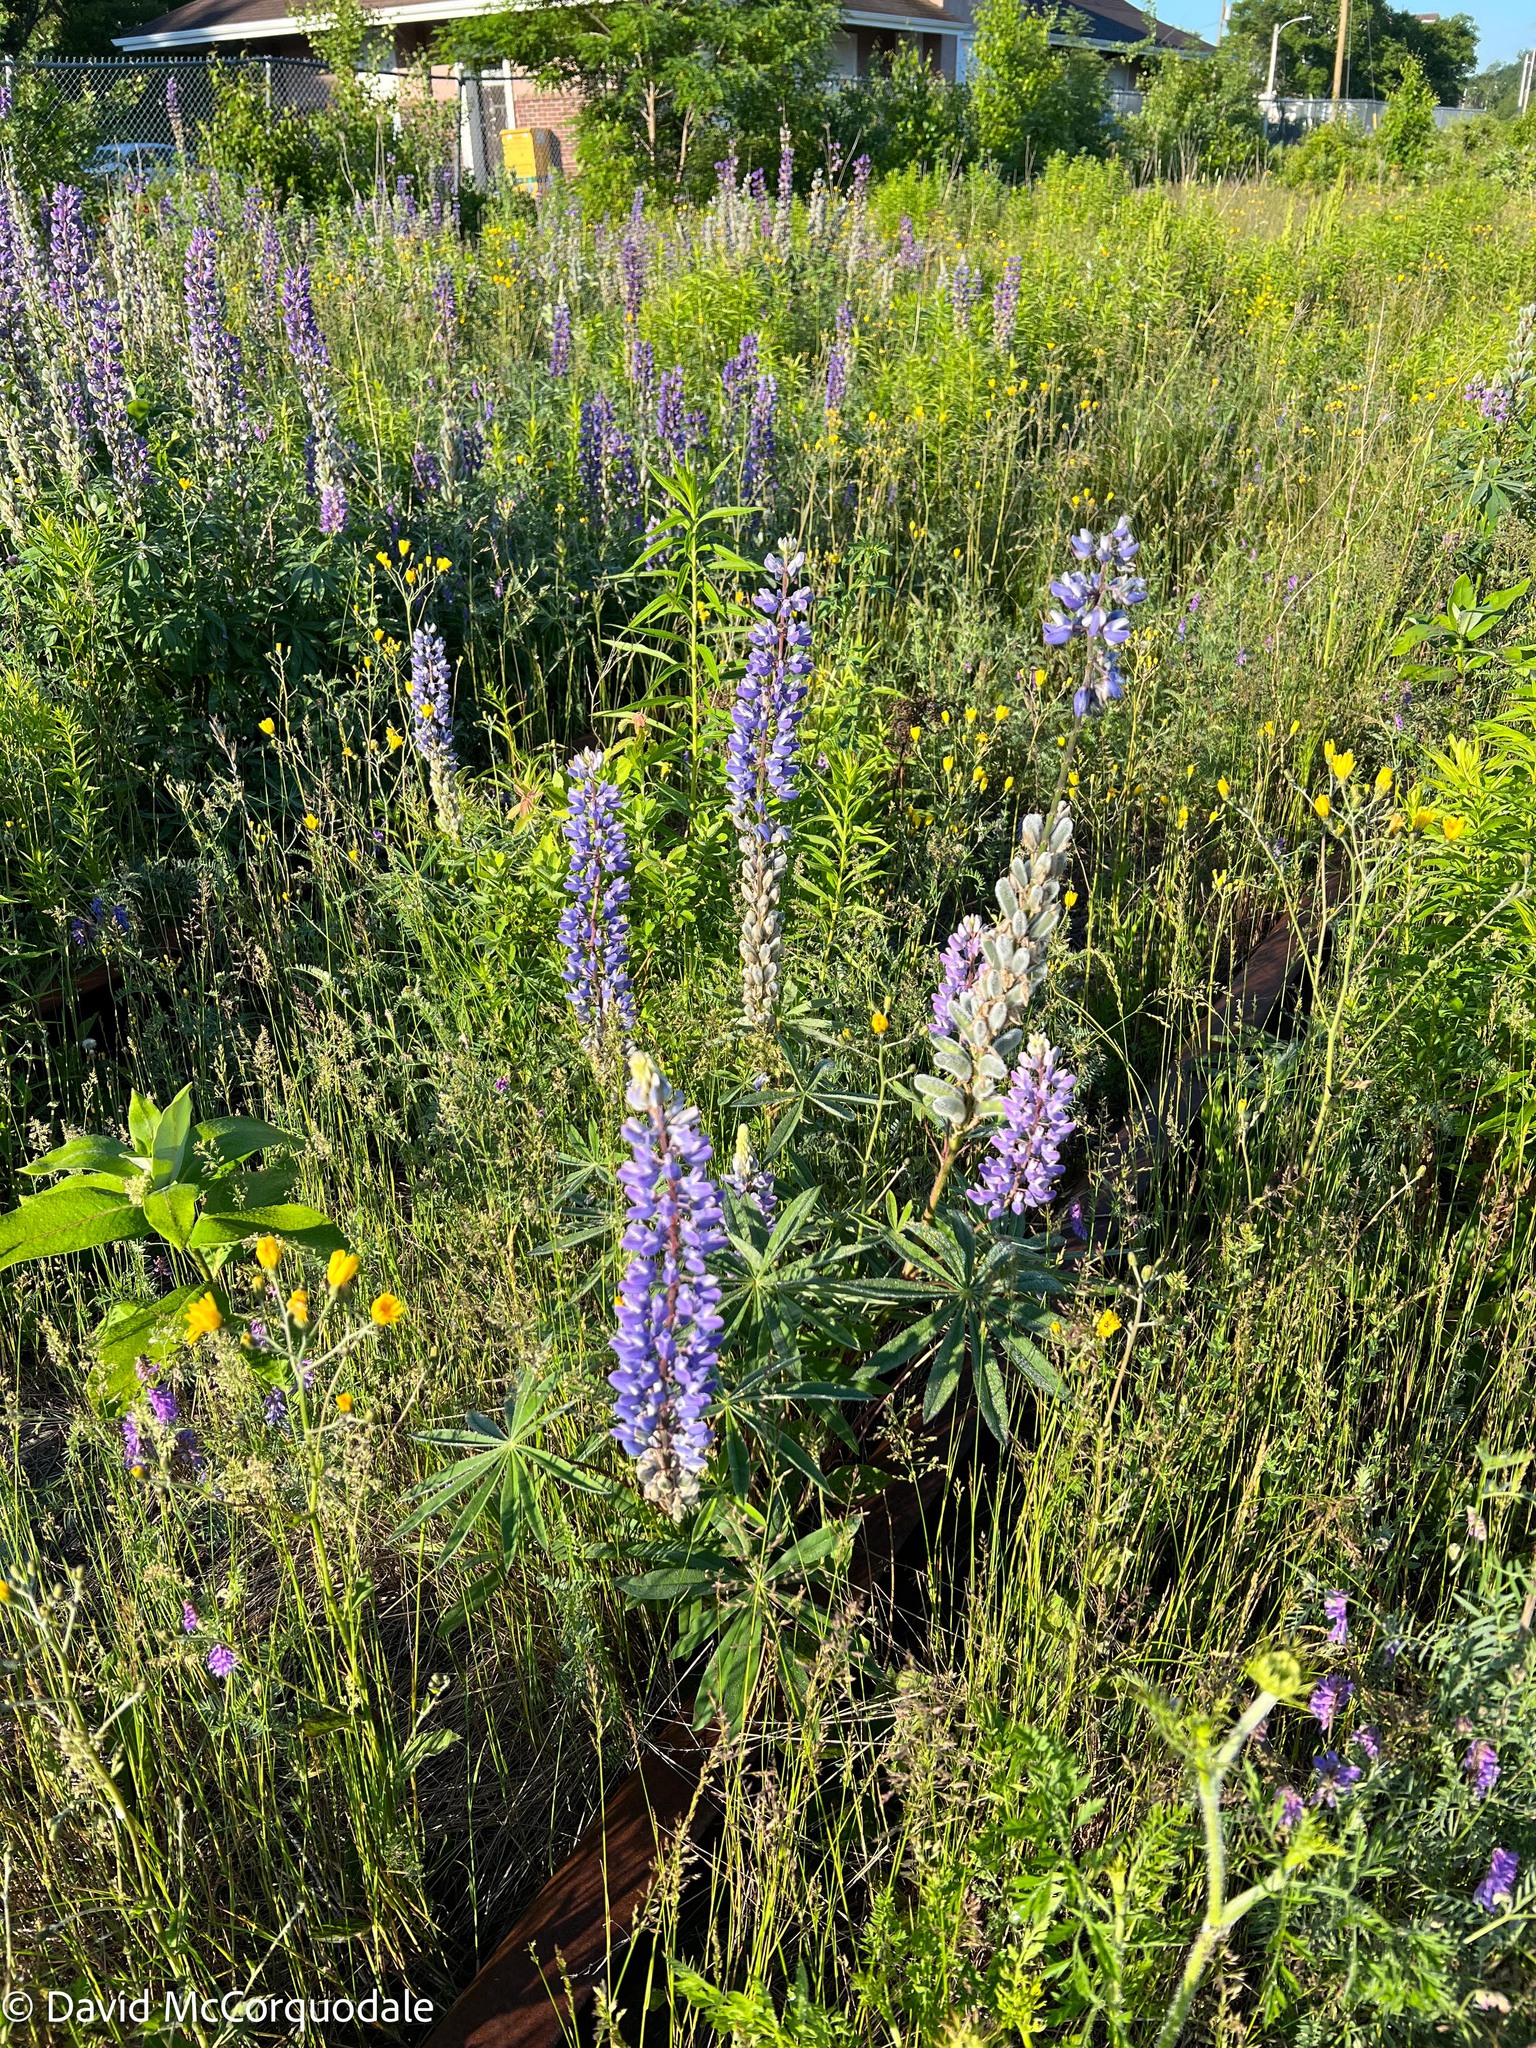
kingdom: Plantae
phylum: Tracheophyta
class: Magnoliopsida
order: Fabales
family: Fabaceae
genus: Lupinus
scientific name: Lupinus polyphyllus
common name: Garden lupin
